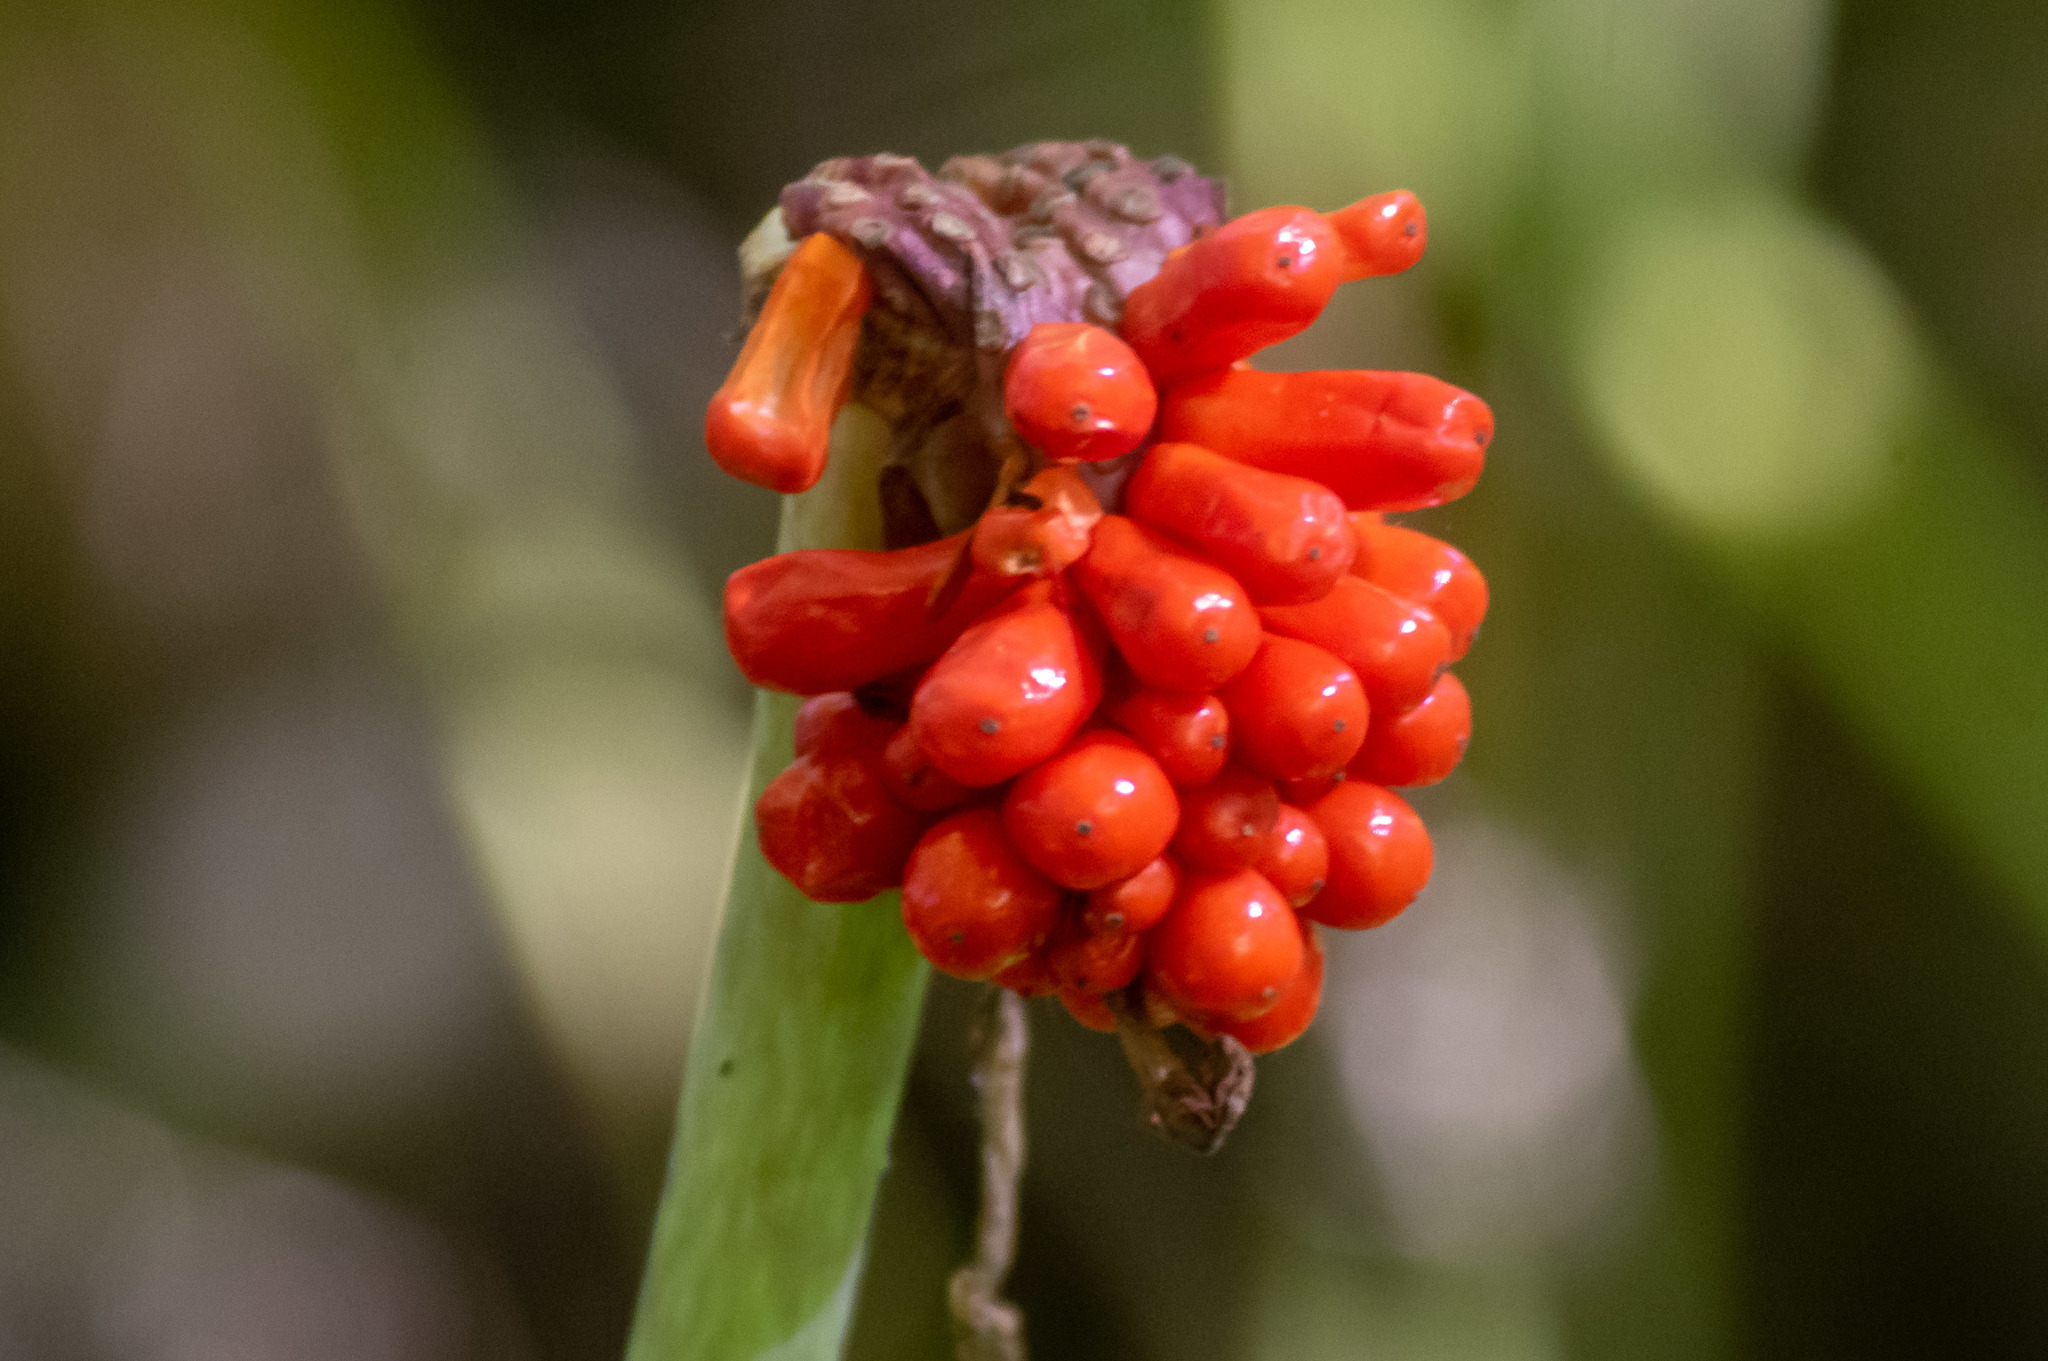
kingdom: Plantae
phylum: Tracheophyta
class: Liliopsida
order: Alismatales
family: Araceae
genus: Arisaema
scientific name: Arisaema triphyllum
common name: Jack-in-the-pulpit
